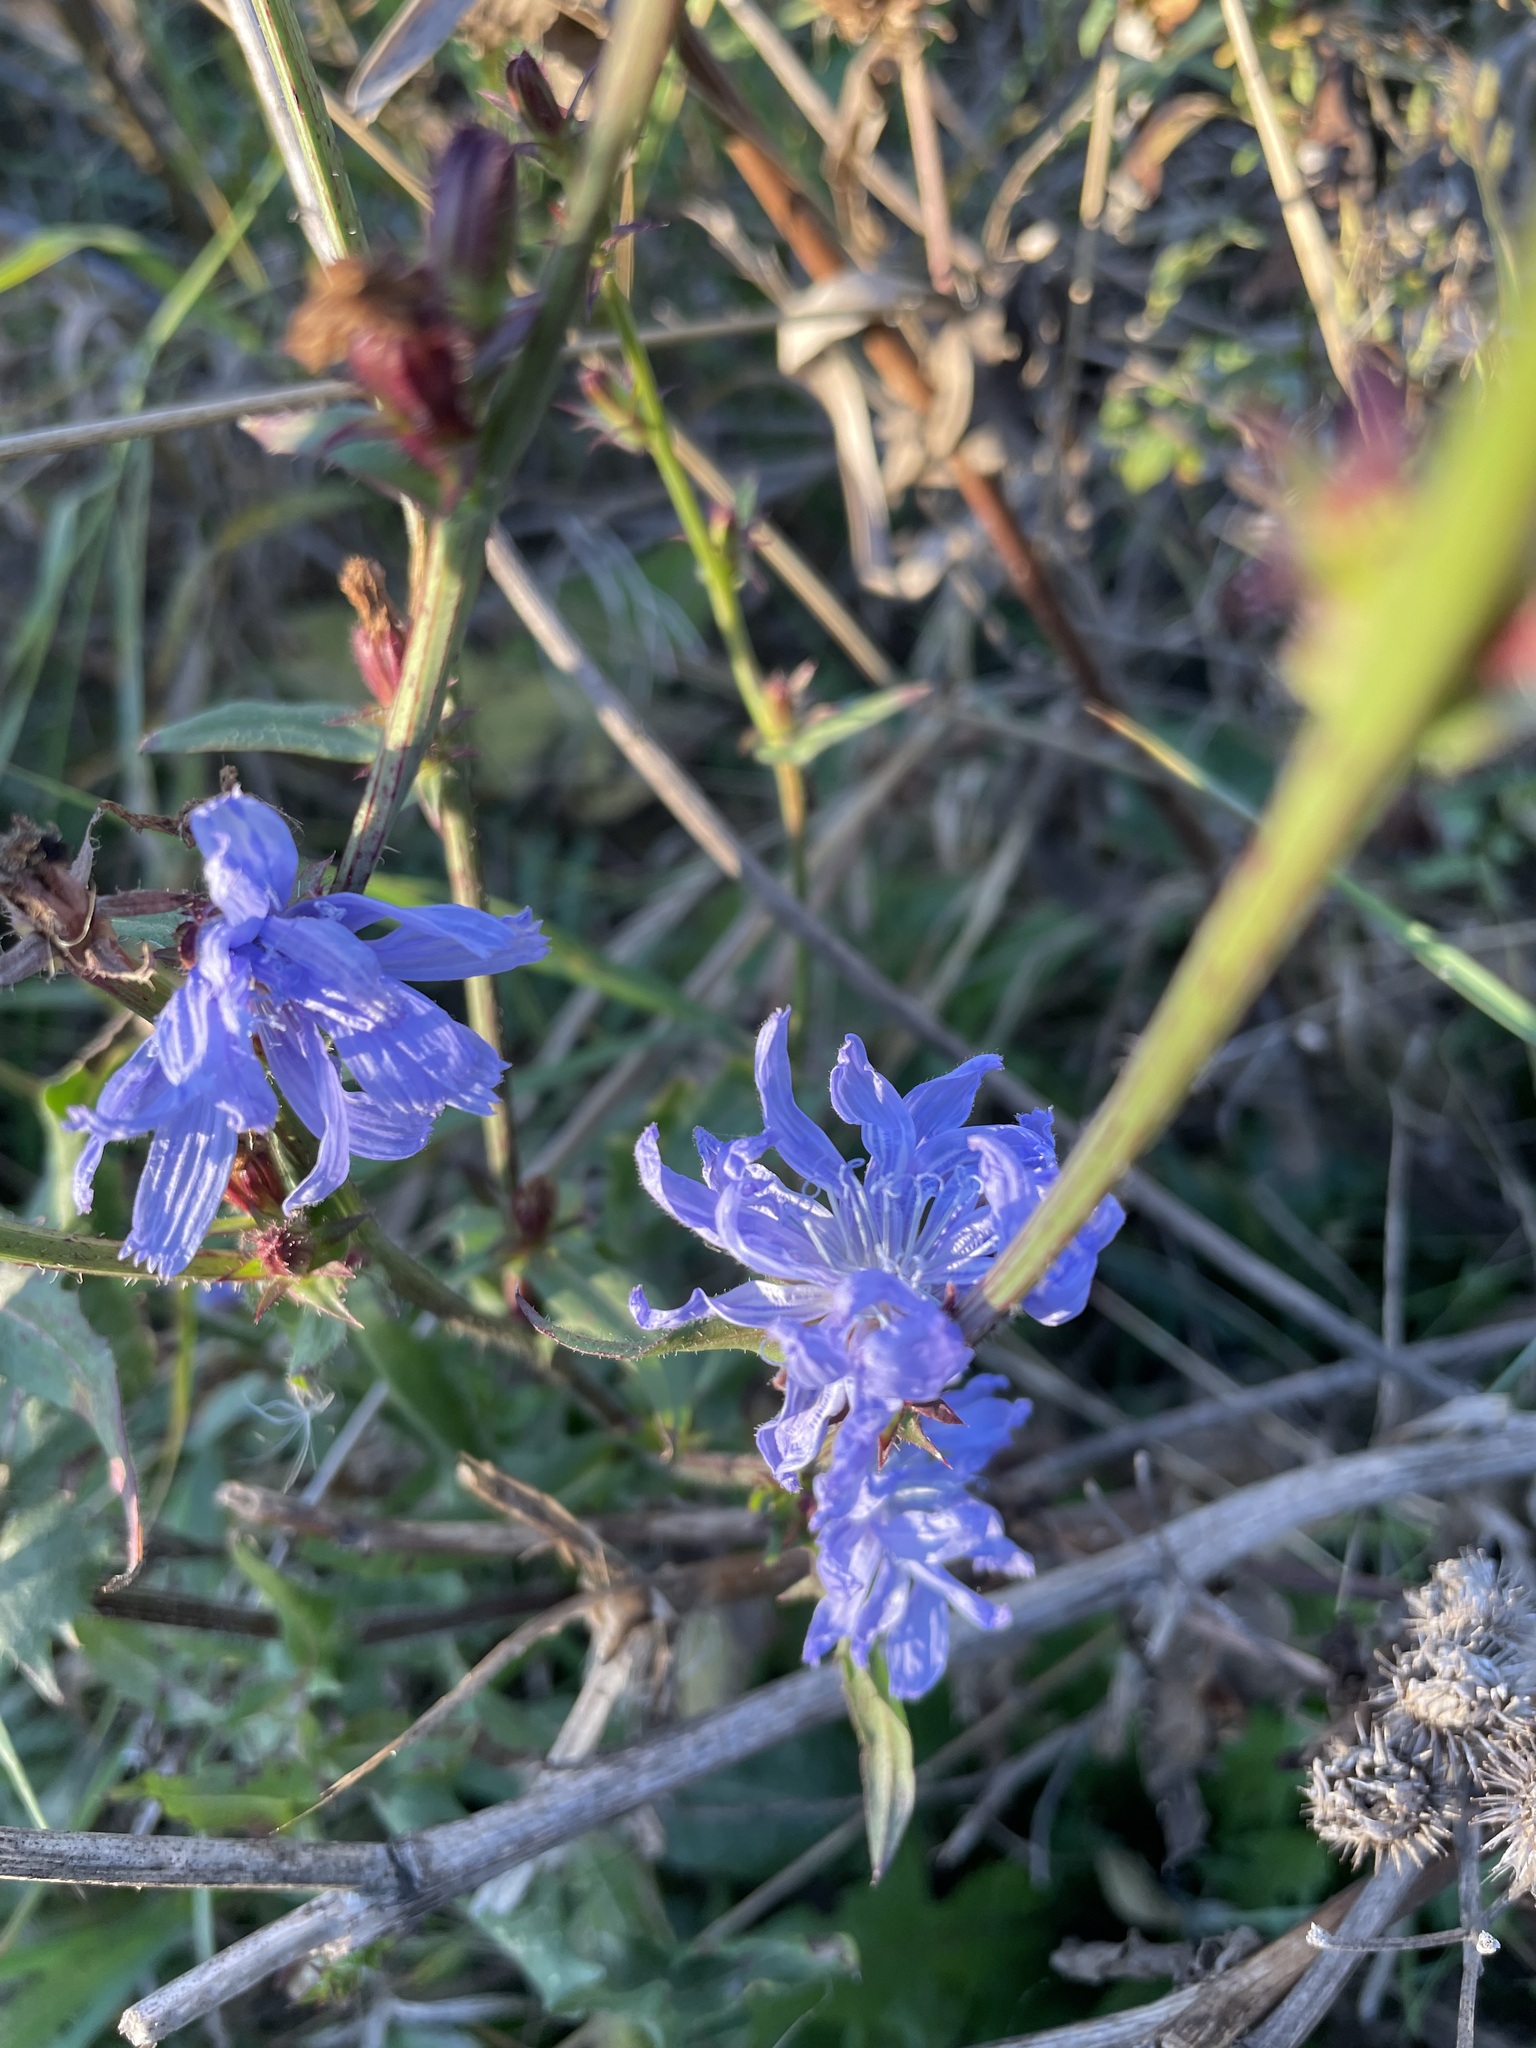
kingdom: Plantae
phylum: Tracheophyta
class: Magnoliopsida
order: Asterales
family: Asteraceae
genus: Cichorium
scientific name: Cichorium intybus
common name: Chicory
